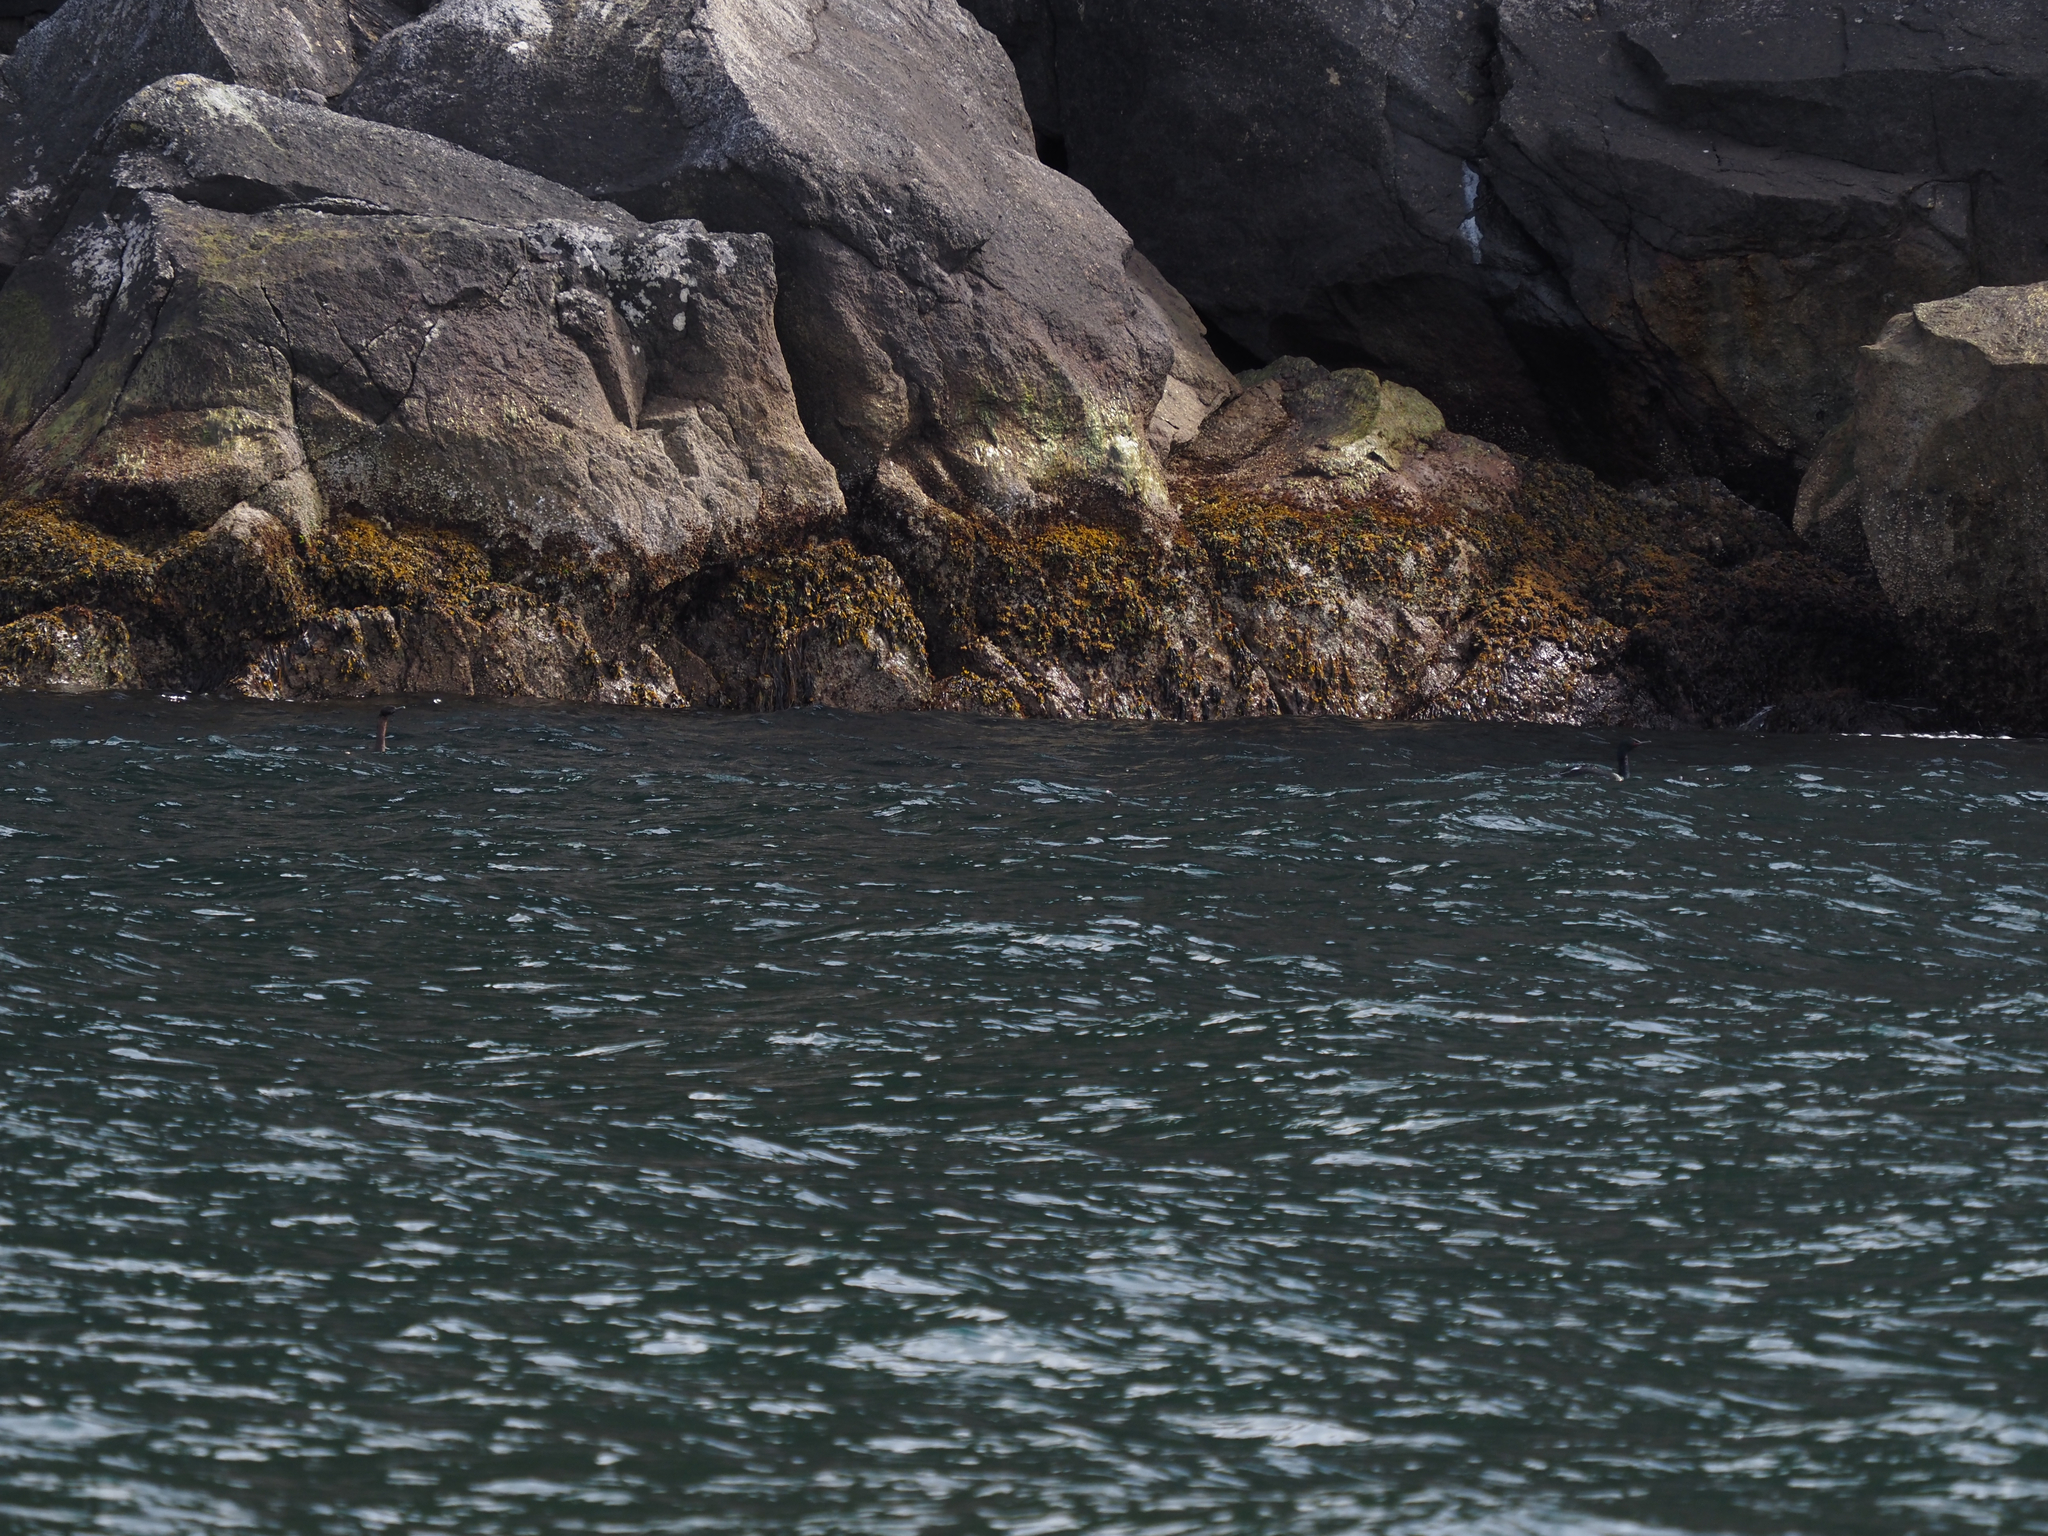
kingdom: Animalia
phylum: Chordata
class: Aves
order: Suliformes
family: Phalacrocoracidae
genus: Phalacrocorax
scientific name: Phalacrocorax pelagicus
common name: Pelagic cormorant
